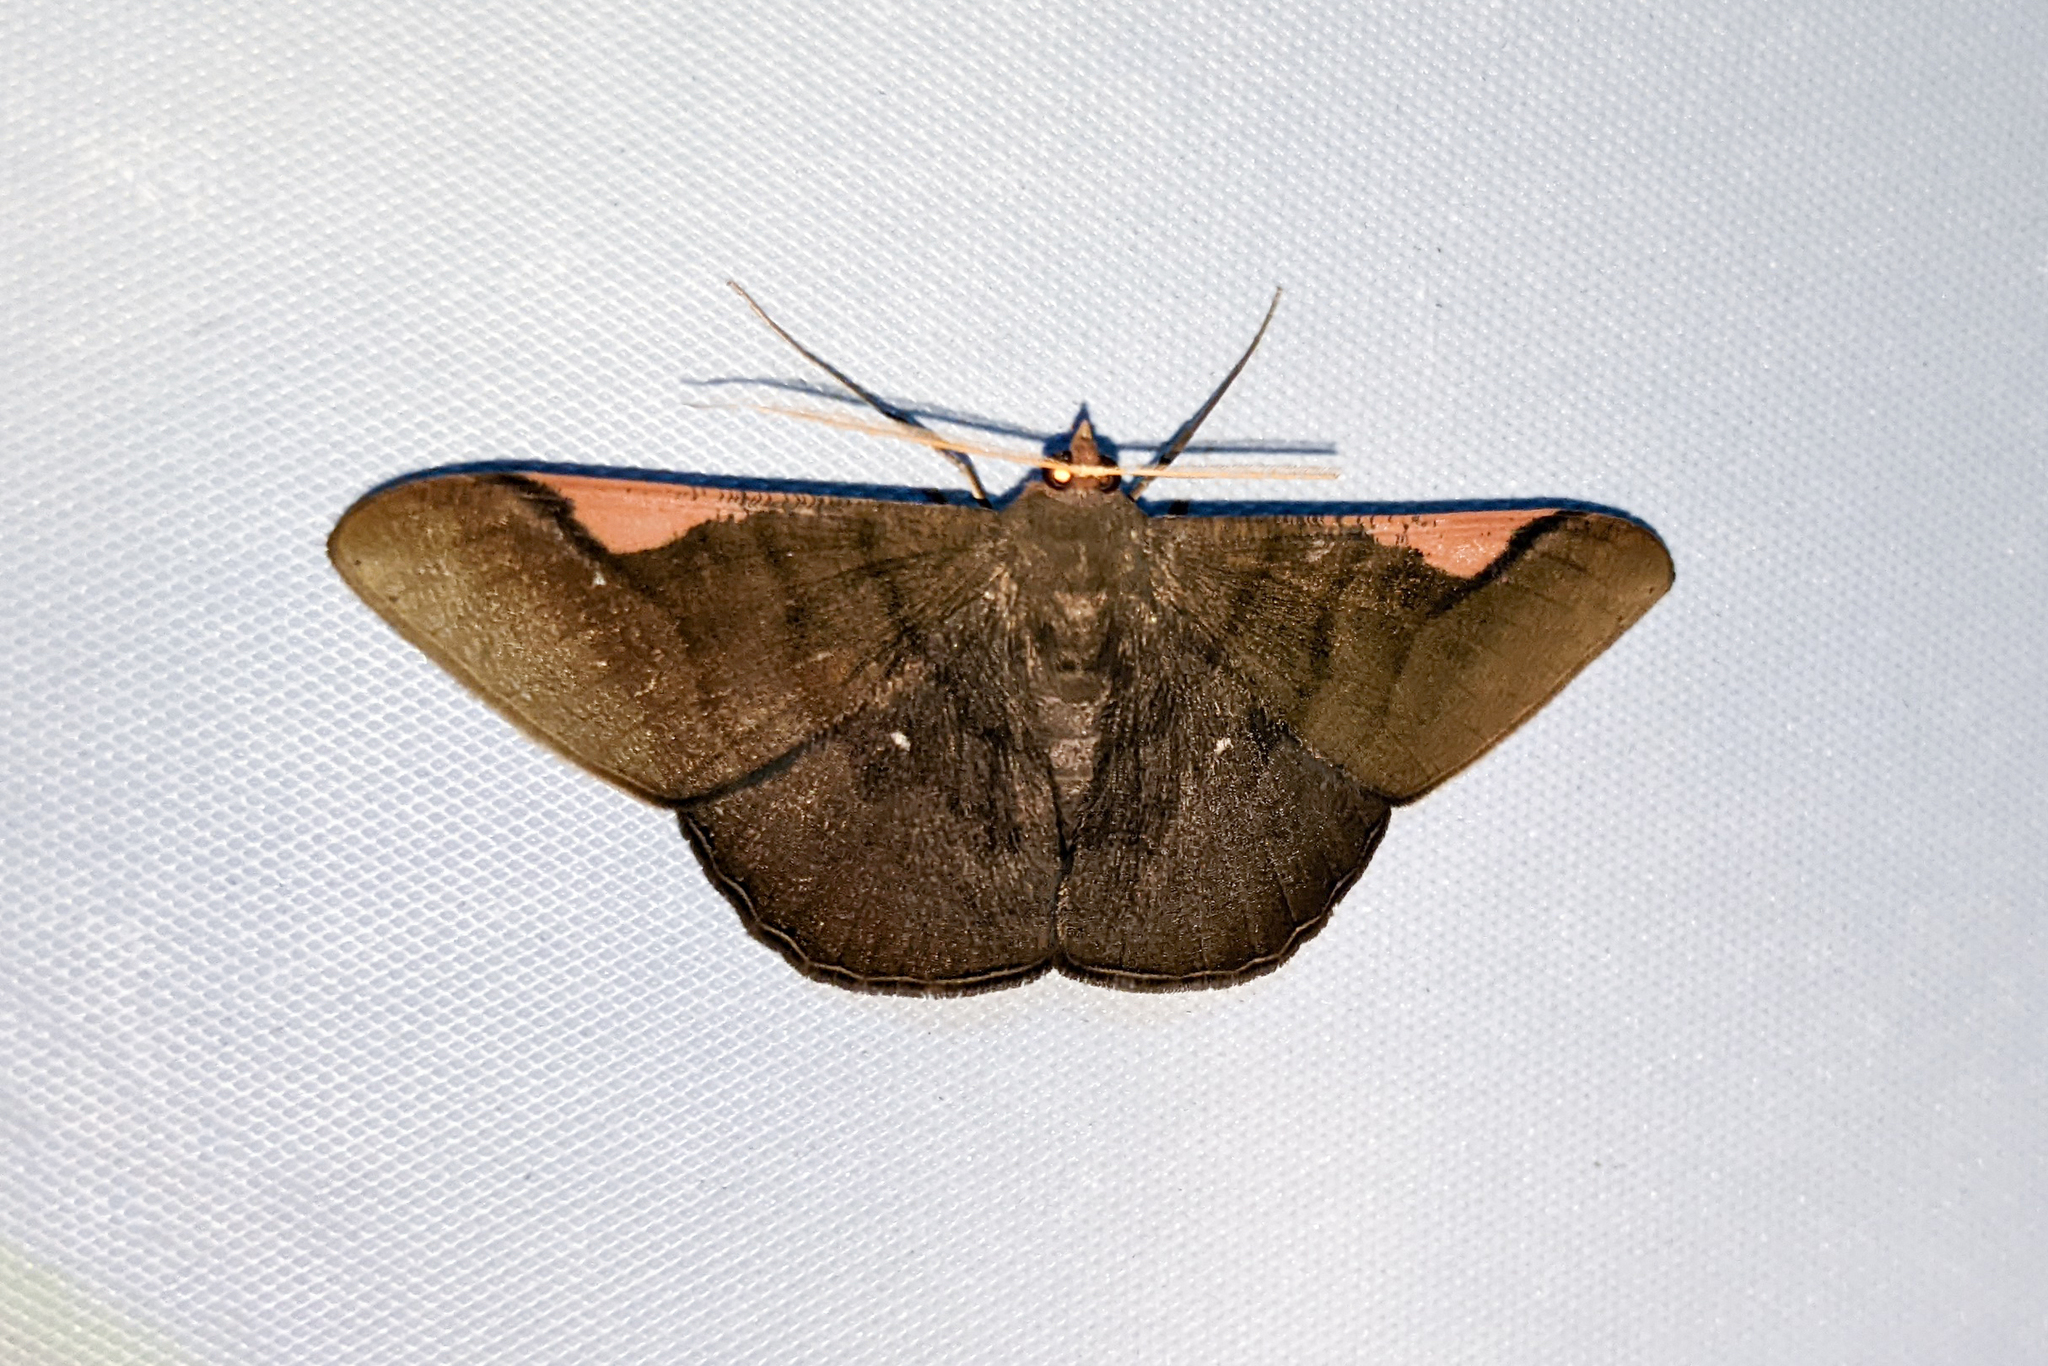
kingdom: Animalia
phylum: Arthropoda
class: Insecta
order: Lepidoptera
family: Geometridae
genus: Sphacelodes
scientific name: Sphacelodes vulneraria
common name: Looper moth
